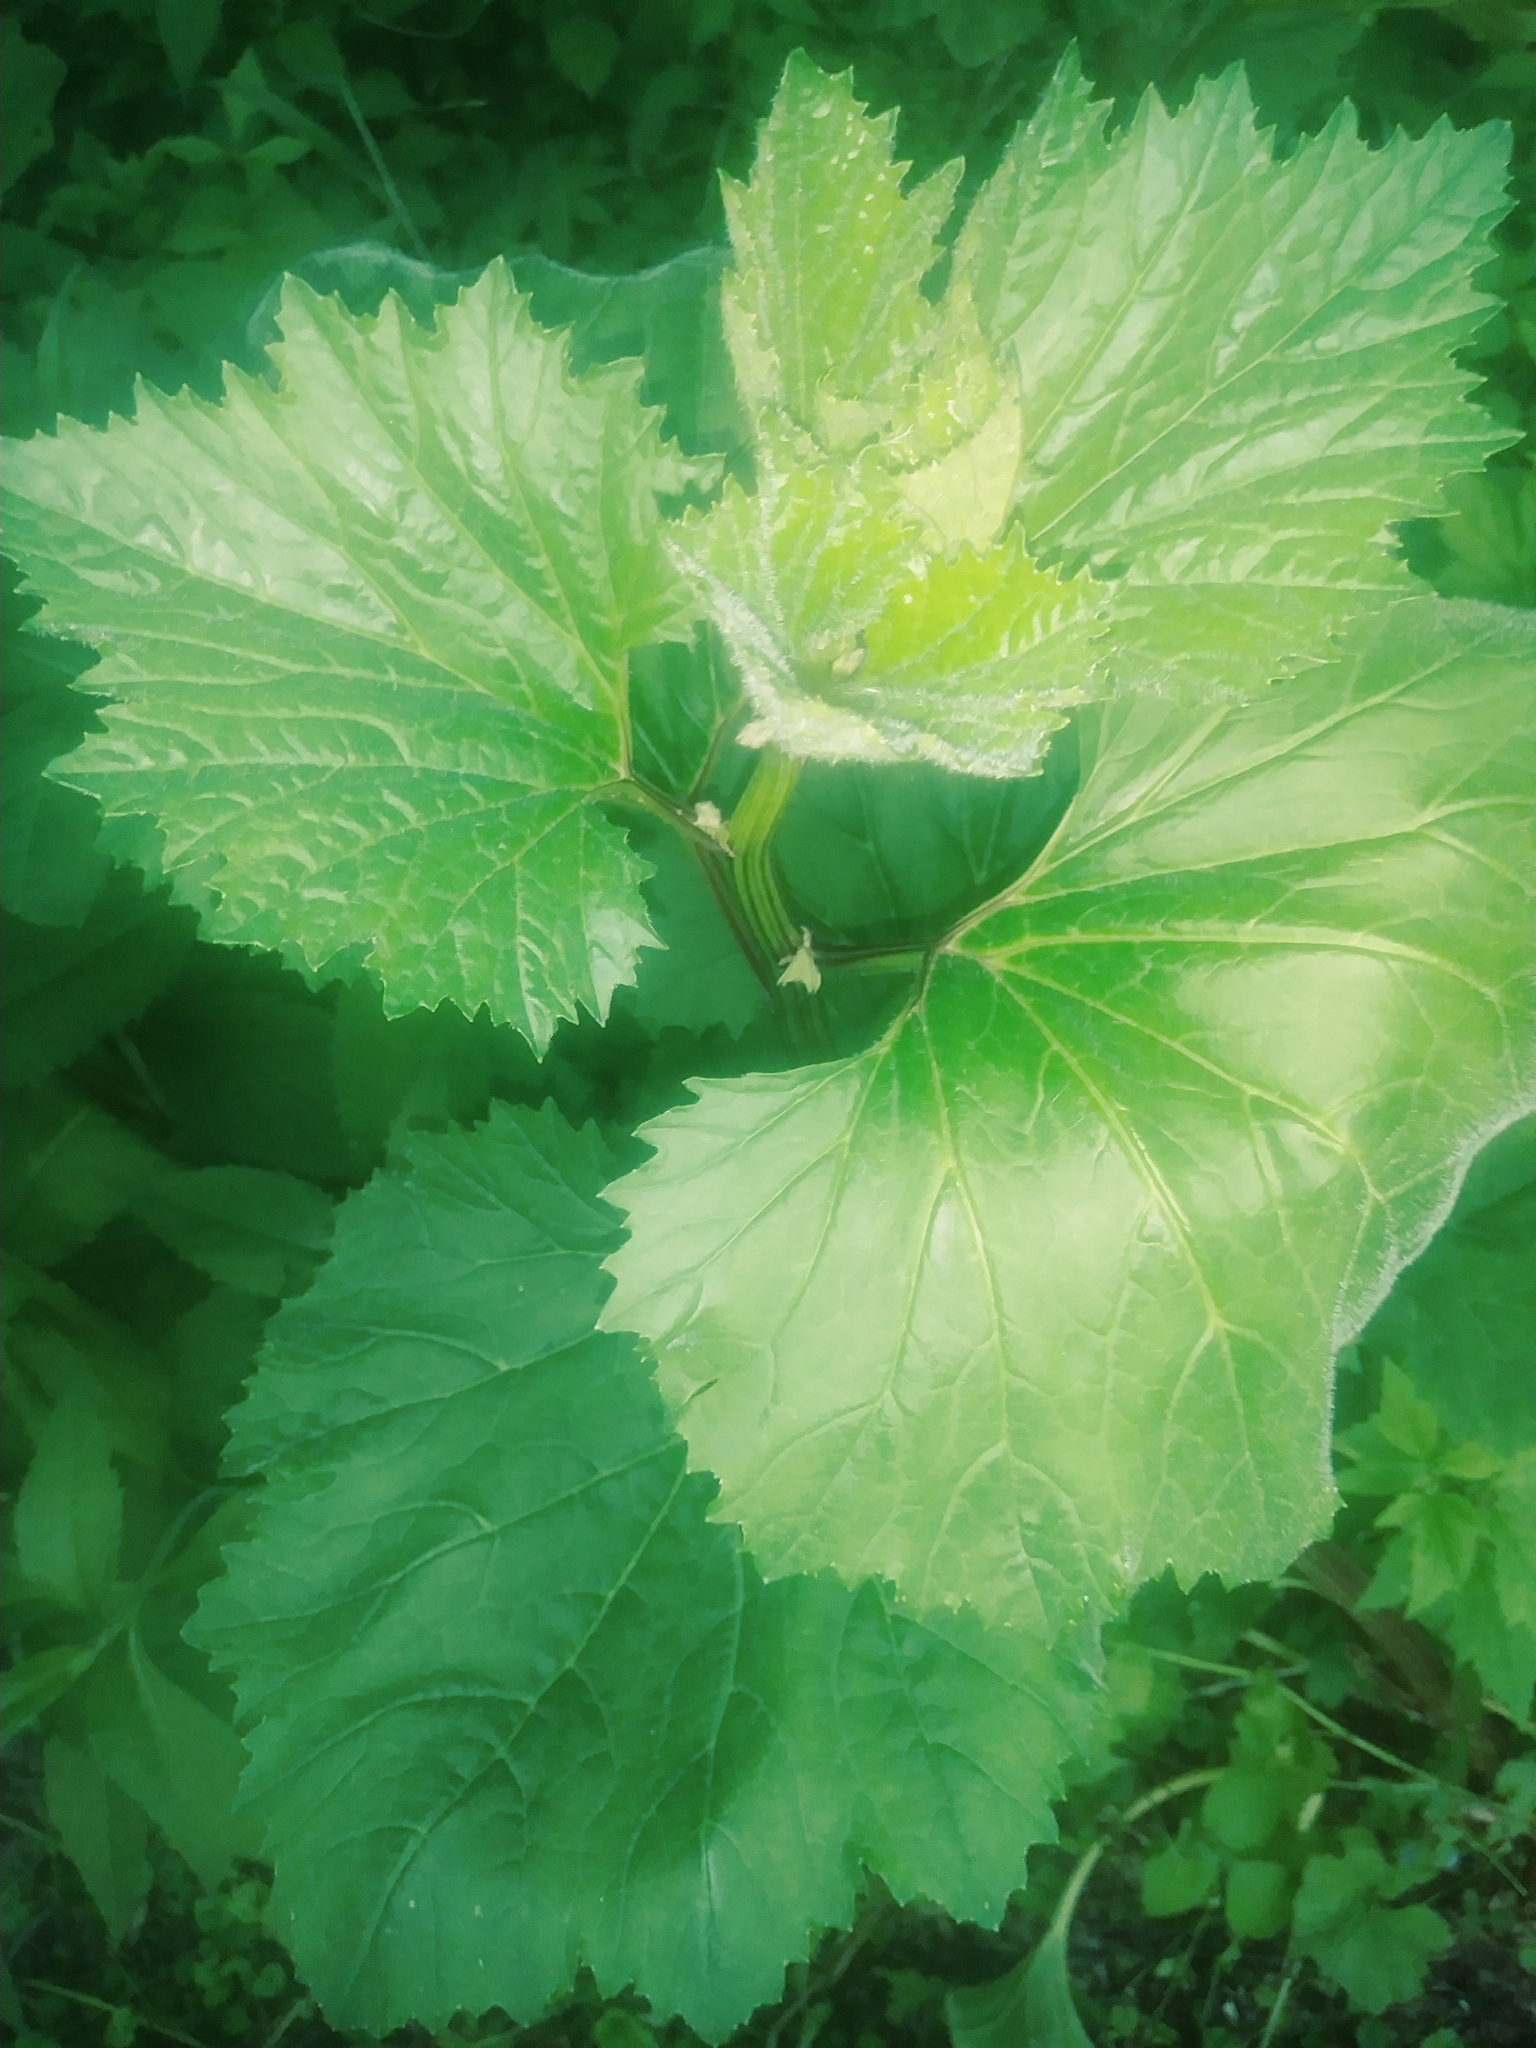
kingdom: Plantae
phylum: Tracheophyta
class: Magnoliopsida
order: Asterales
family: Asteraceae
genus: Arnoglossum
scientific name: Arnoglossum reniforme
